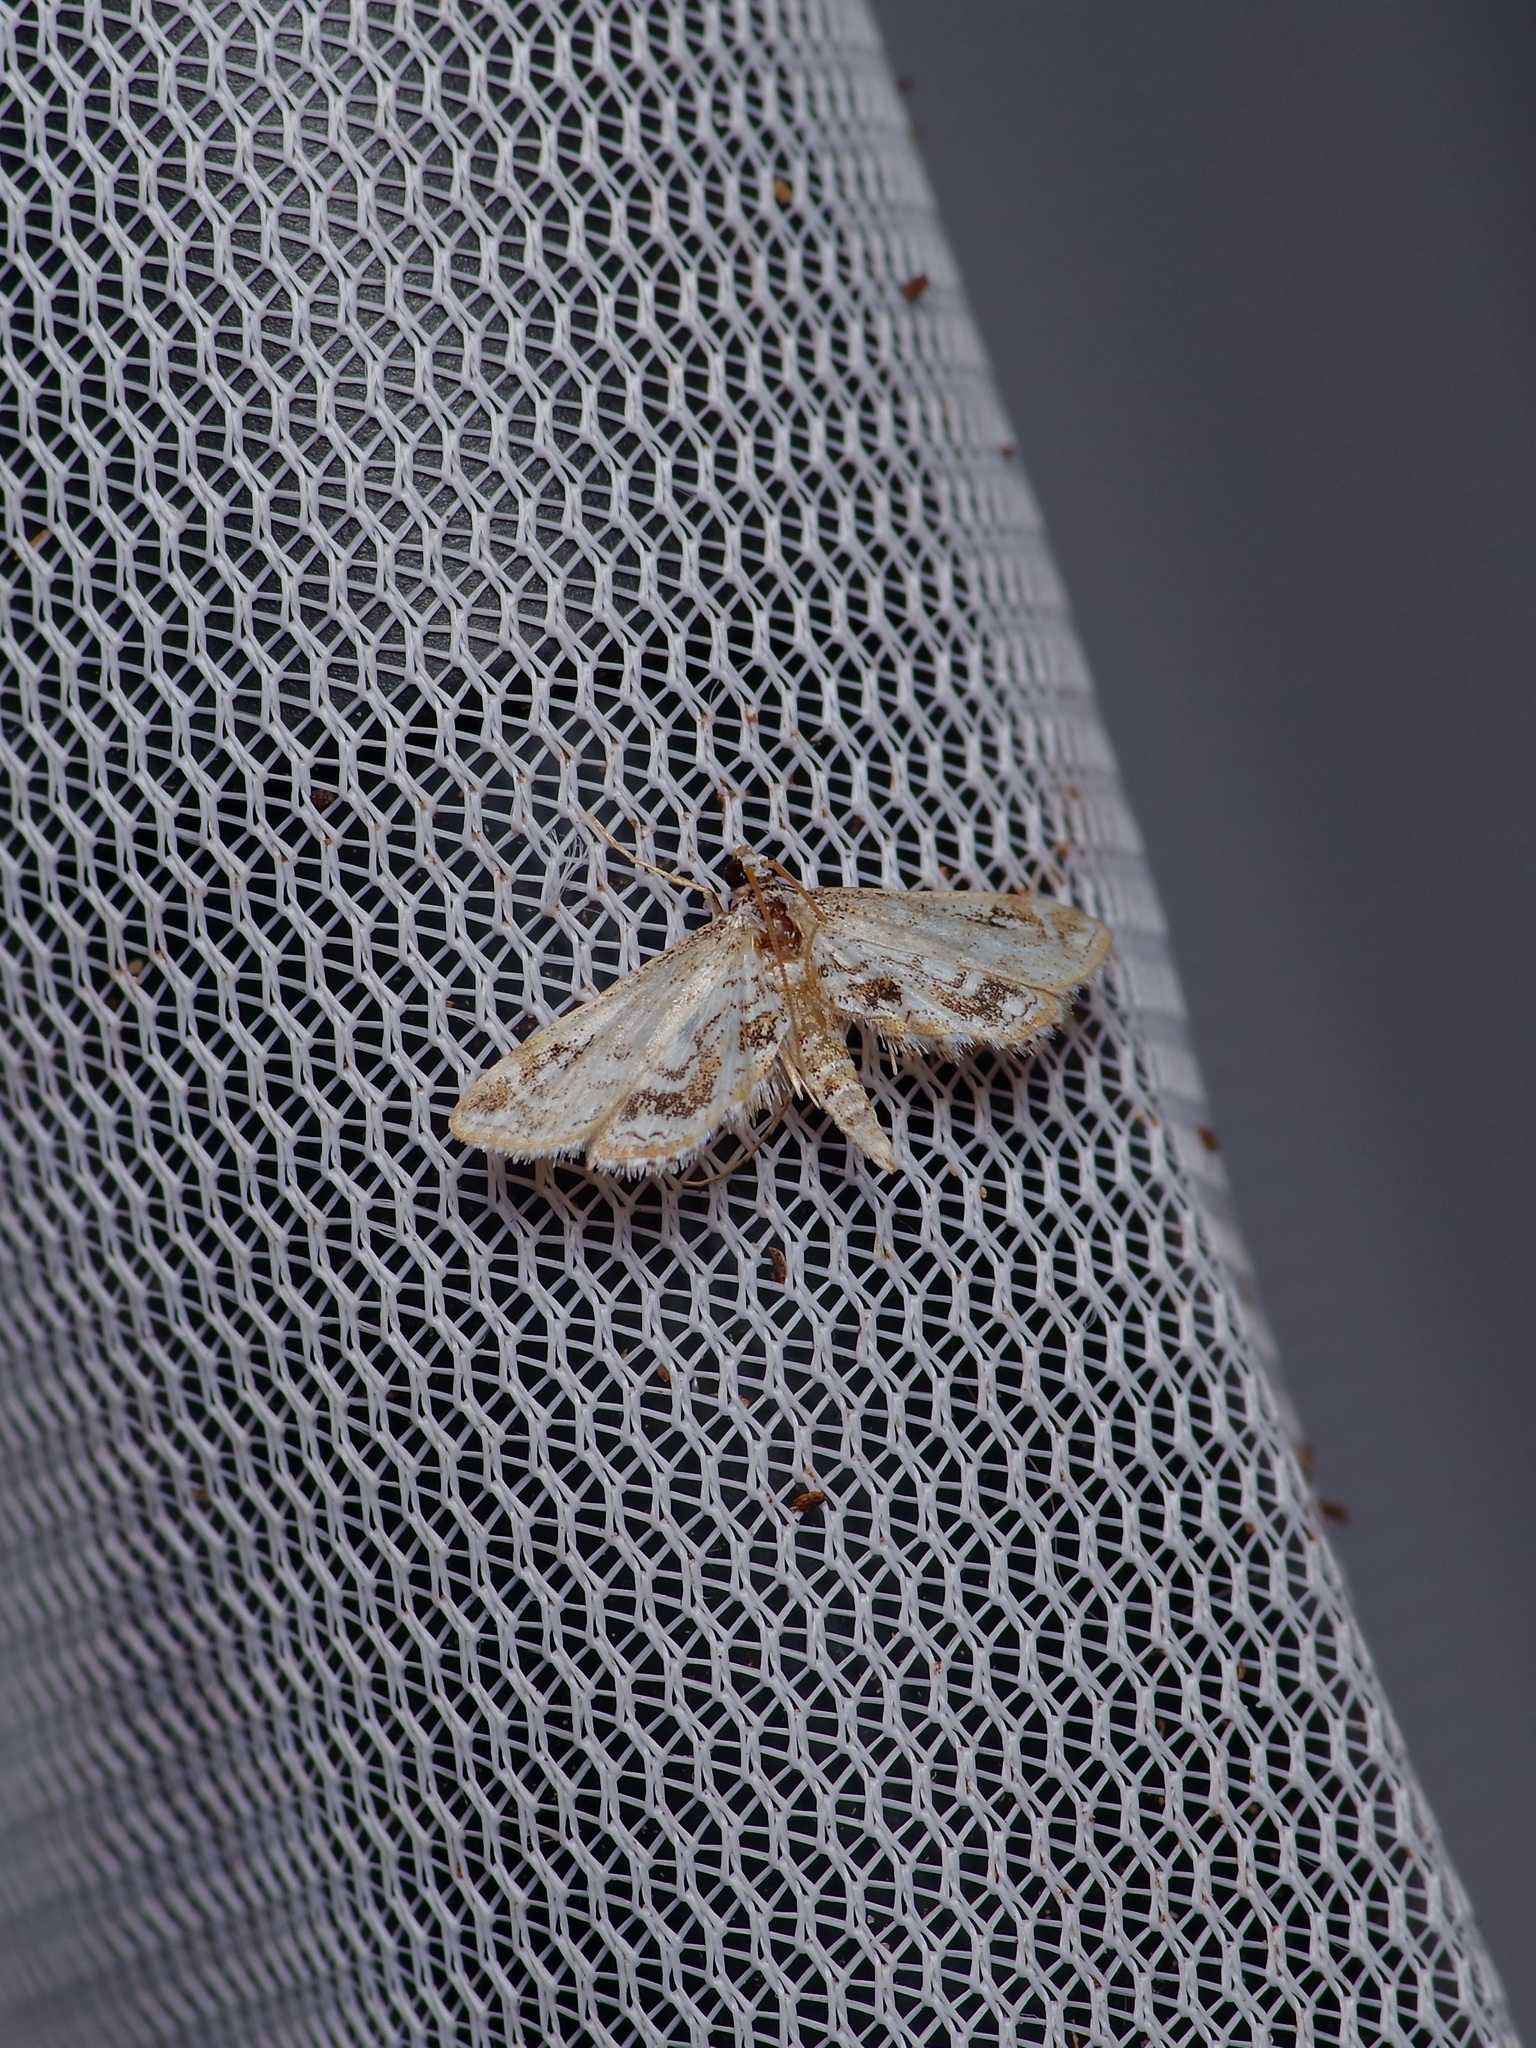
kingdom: Animalia
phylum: Arthropoda
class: Insecta
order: Lepidoptera
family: Crambidae
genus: Parapoynx
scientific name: Parapoynx diminutalis
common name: Hydrilla leafcutter
